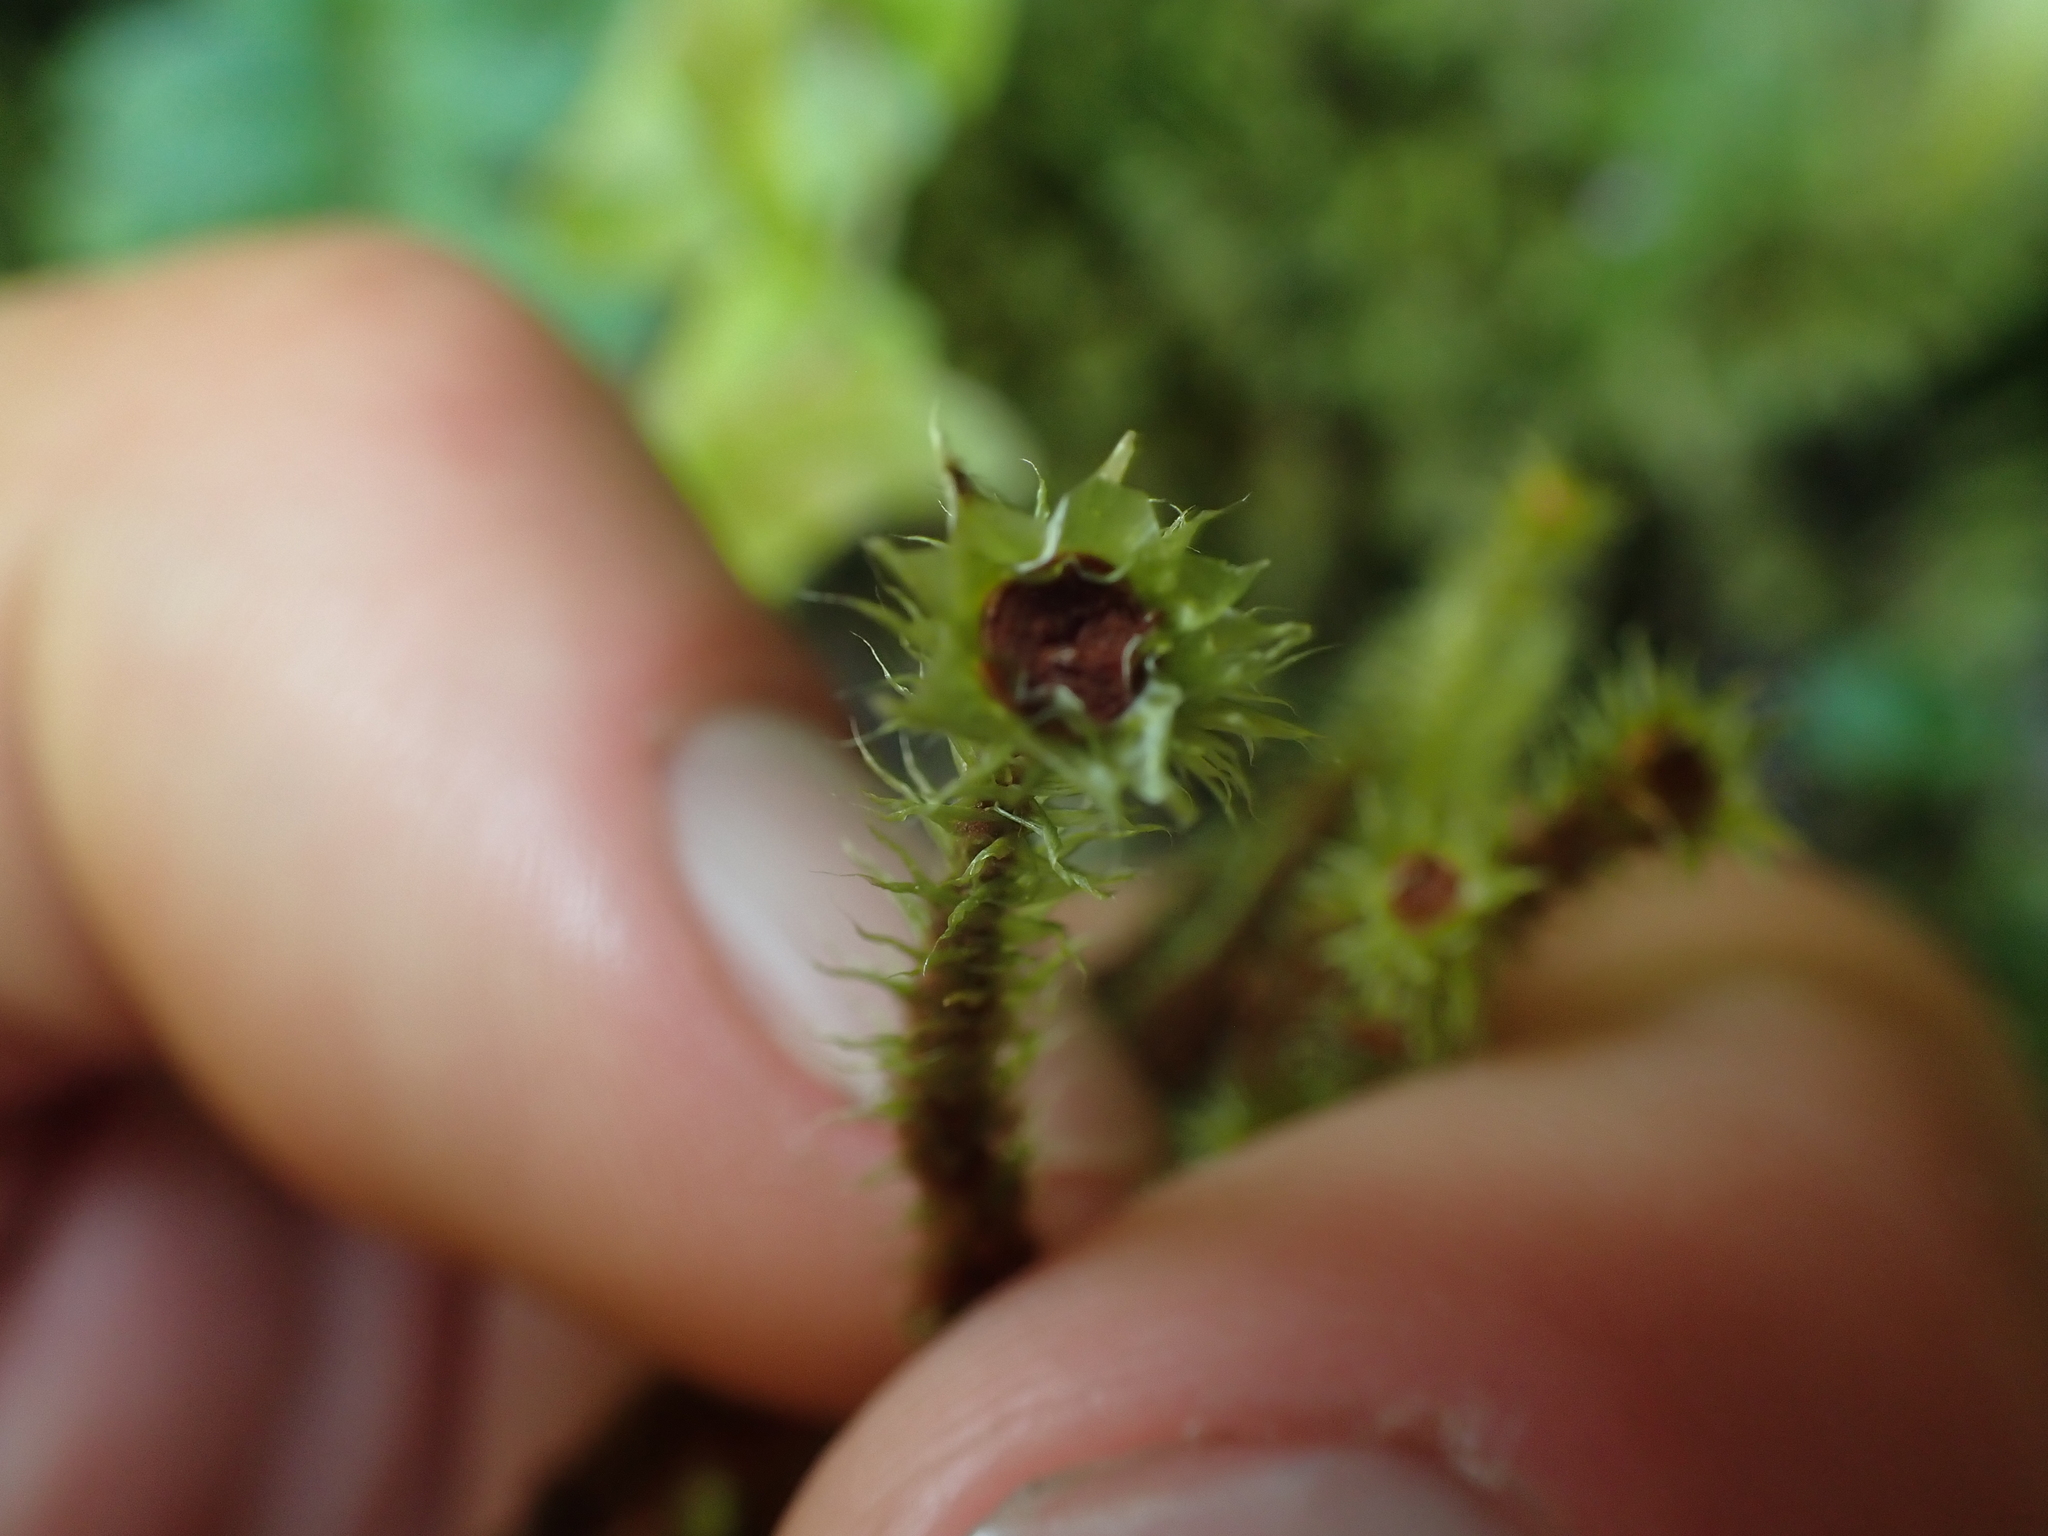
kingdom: Plantae
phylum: Bryophyta
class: Bryopsida
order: Bartramiales
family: Bartramiaceae
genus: Breutelia
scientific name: Breutelia pendula
